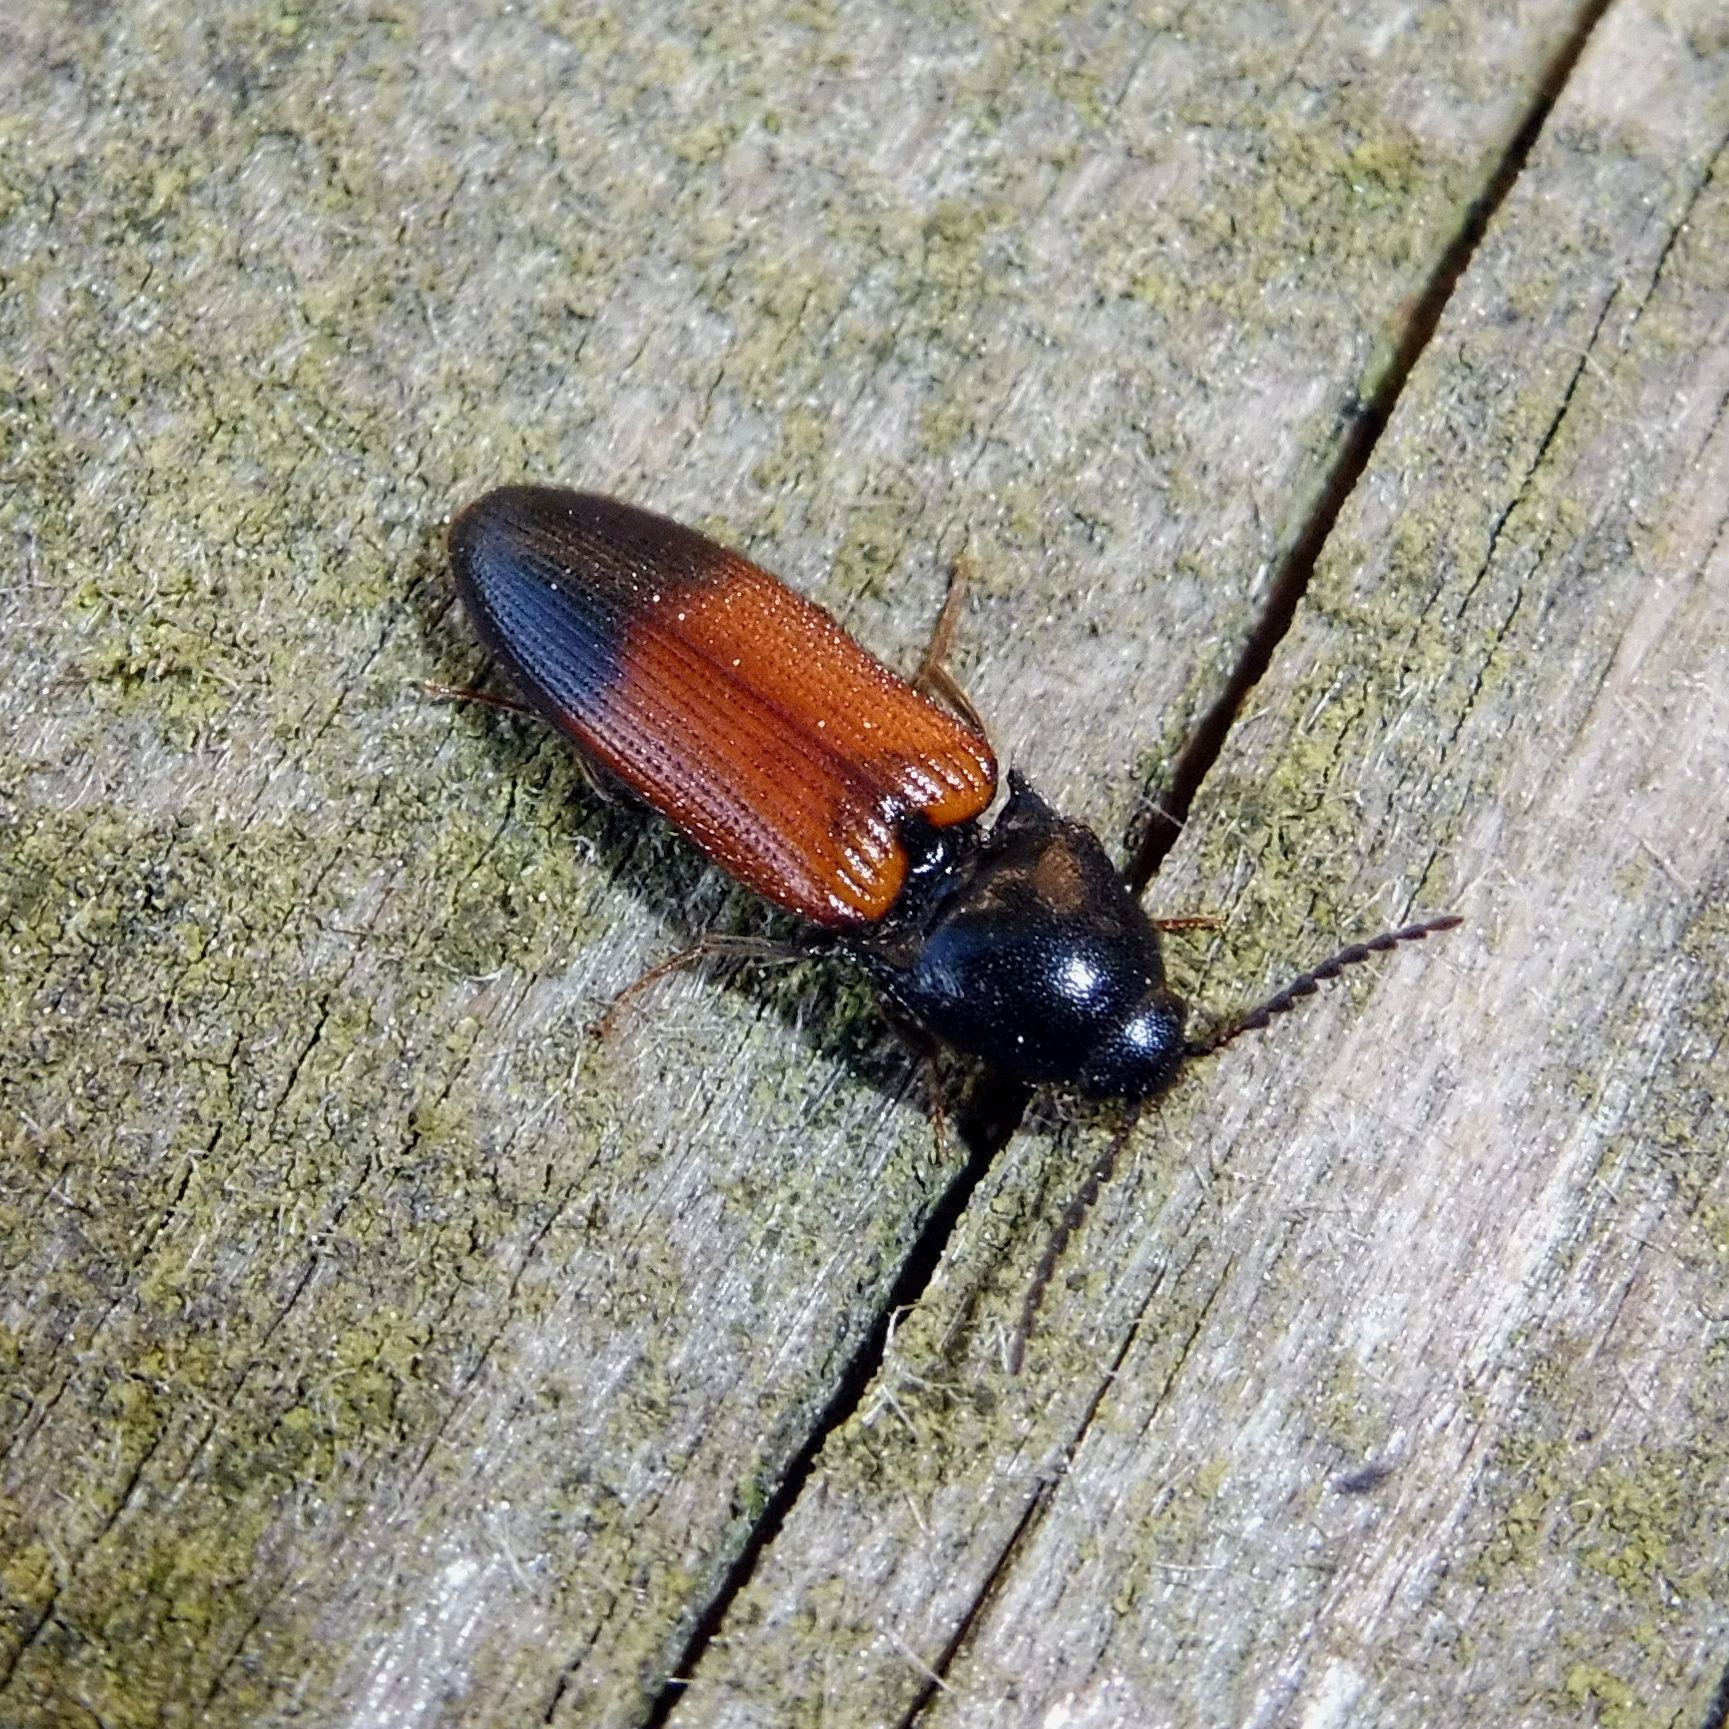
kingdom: Animalia
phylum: Arthropoda
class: Insecta
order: Coleoptera
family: Elateridae
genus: Ampedus
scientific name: Ampedus balteatus
